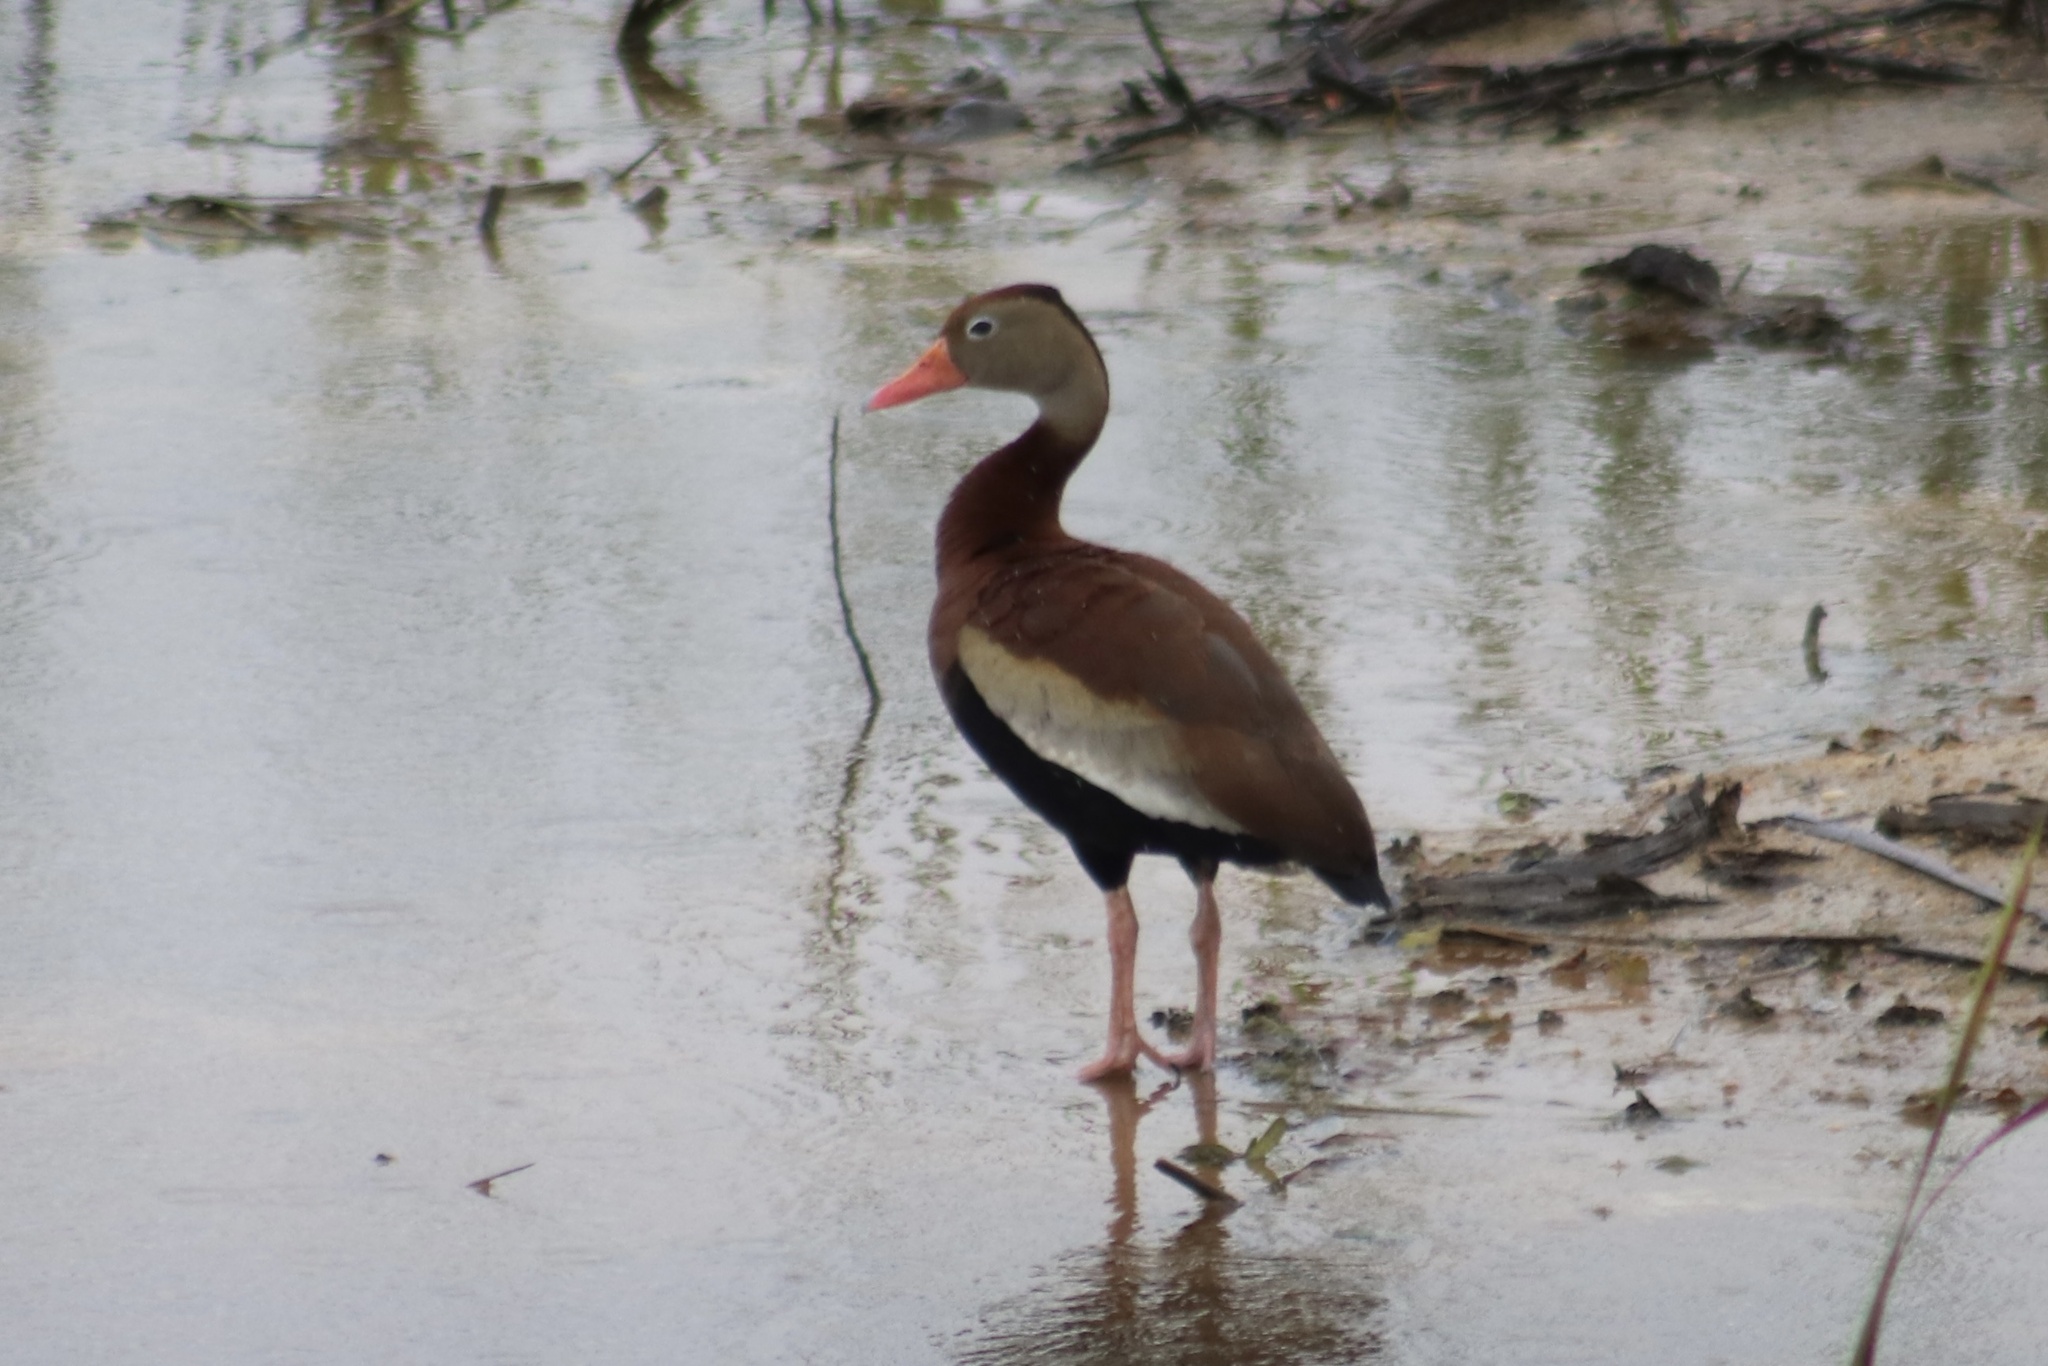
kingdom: Animalia
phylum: Chordata
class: Aves
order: Anseriformes
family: Anatidae
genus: Dendrocygna
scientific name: Dendrocygna autumnalis
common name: Black-bellied whistling duck
